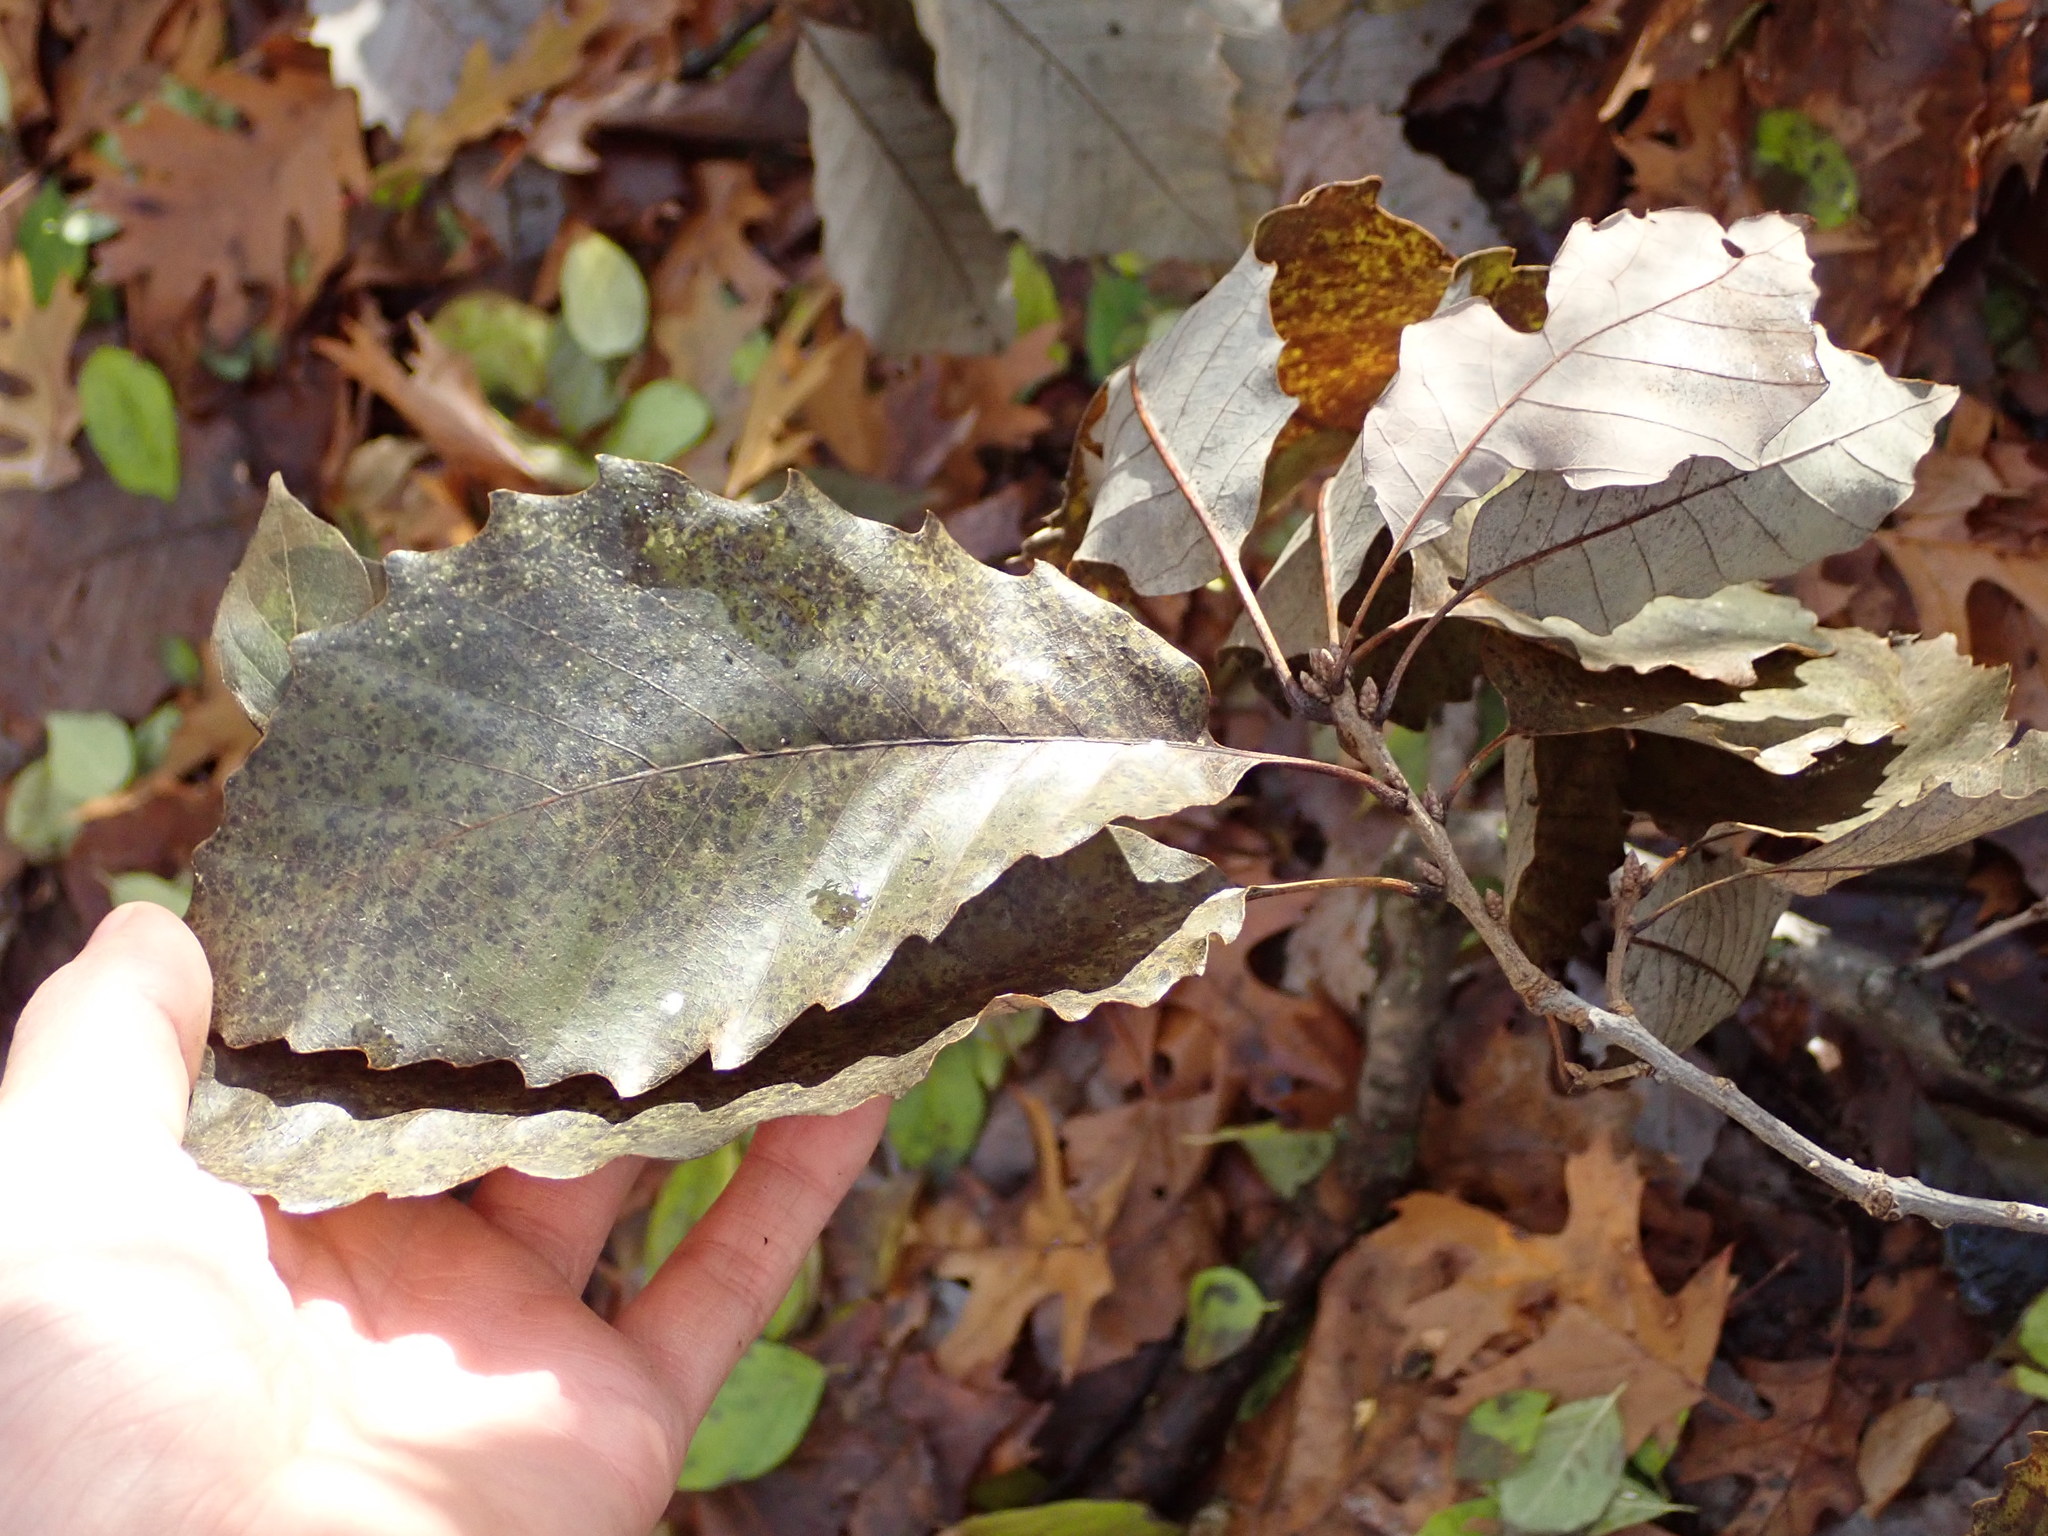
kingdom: Plantae
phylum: Tracheophyta
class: Magnoliopsida
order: Fagales
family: Fagaceae
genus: Quercus
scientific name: Quercus muehlenbergii
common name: Chinkapin oak
